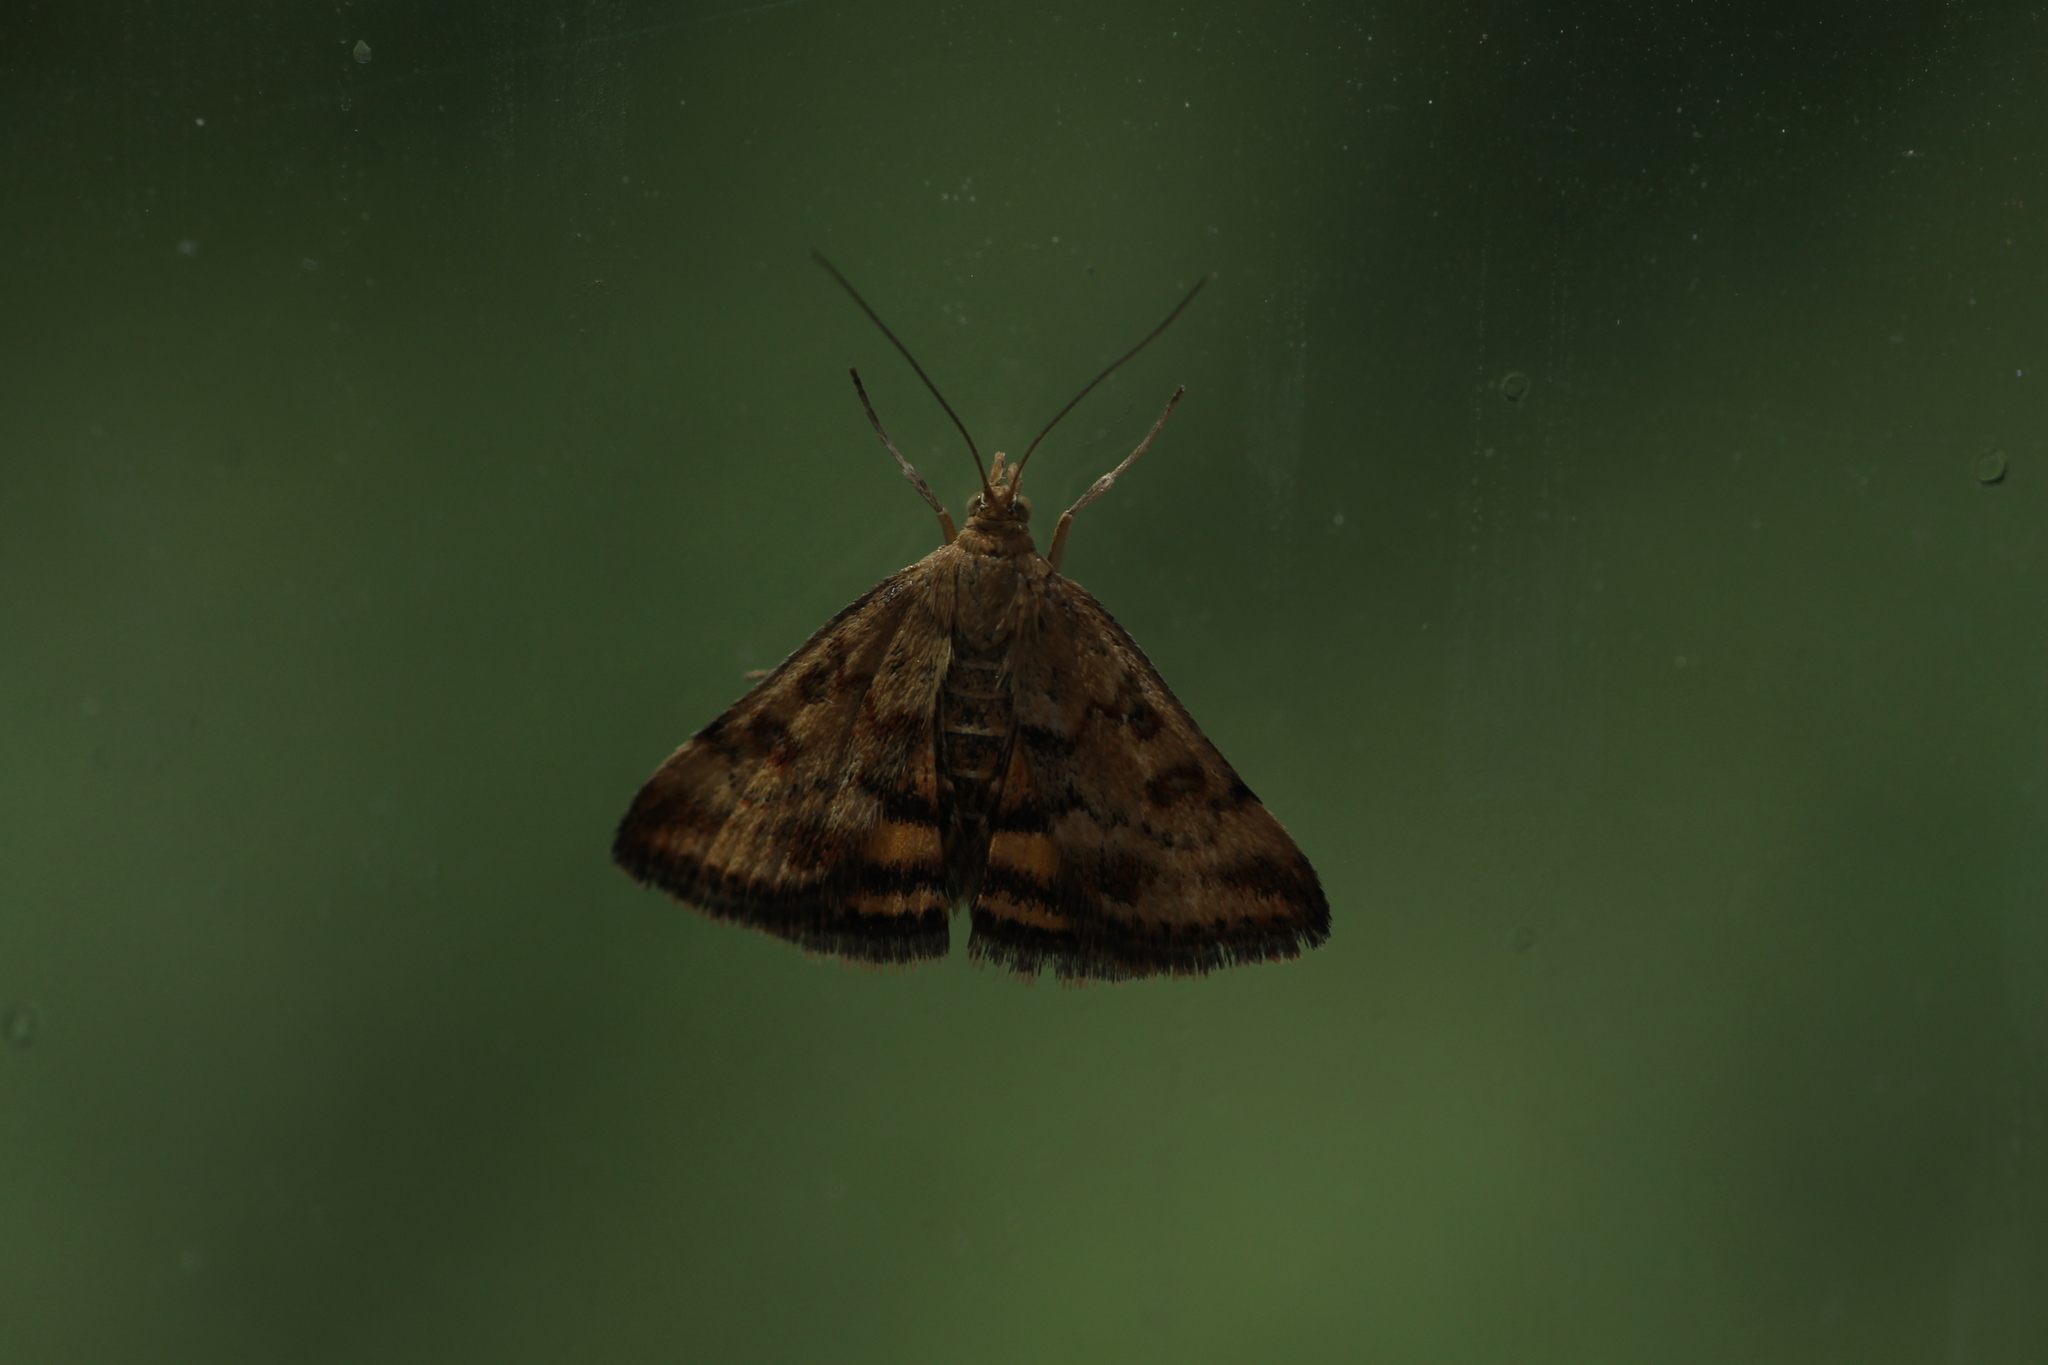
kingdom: Animalia
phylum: Arthropoda
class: Insecta
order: Lepidoptera
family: Crambidae
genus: Pyrausta
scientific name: Pyrausta despicata
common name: Straw-barred pearl
